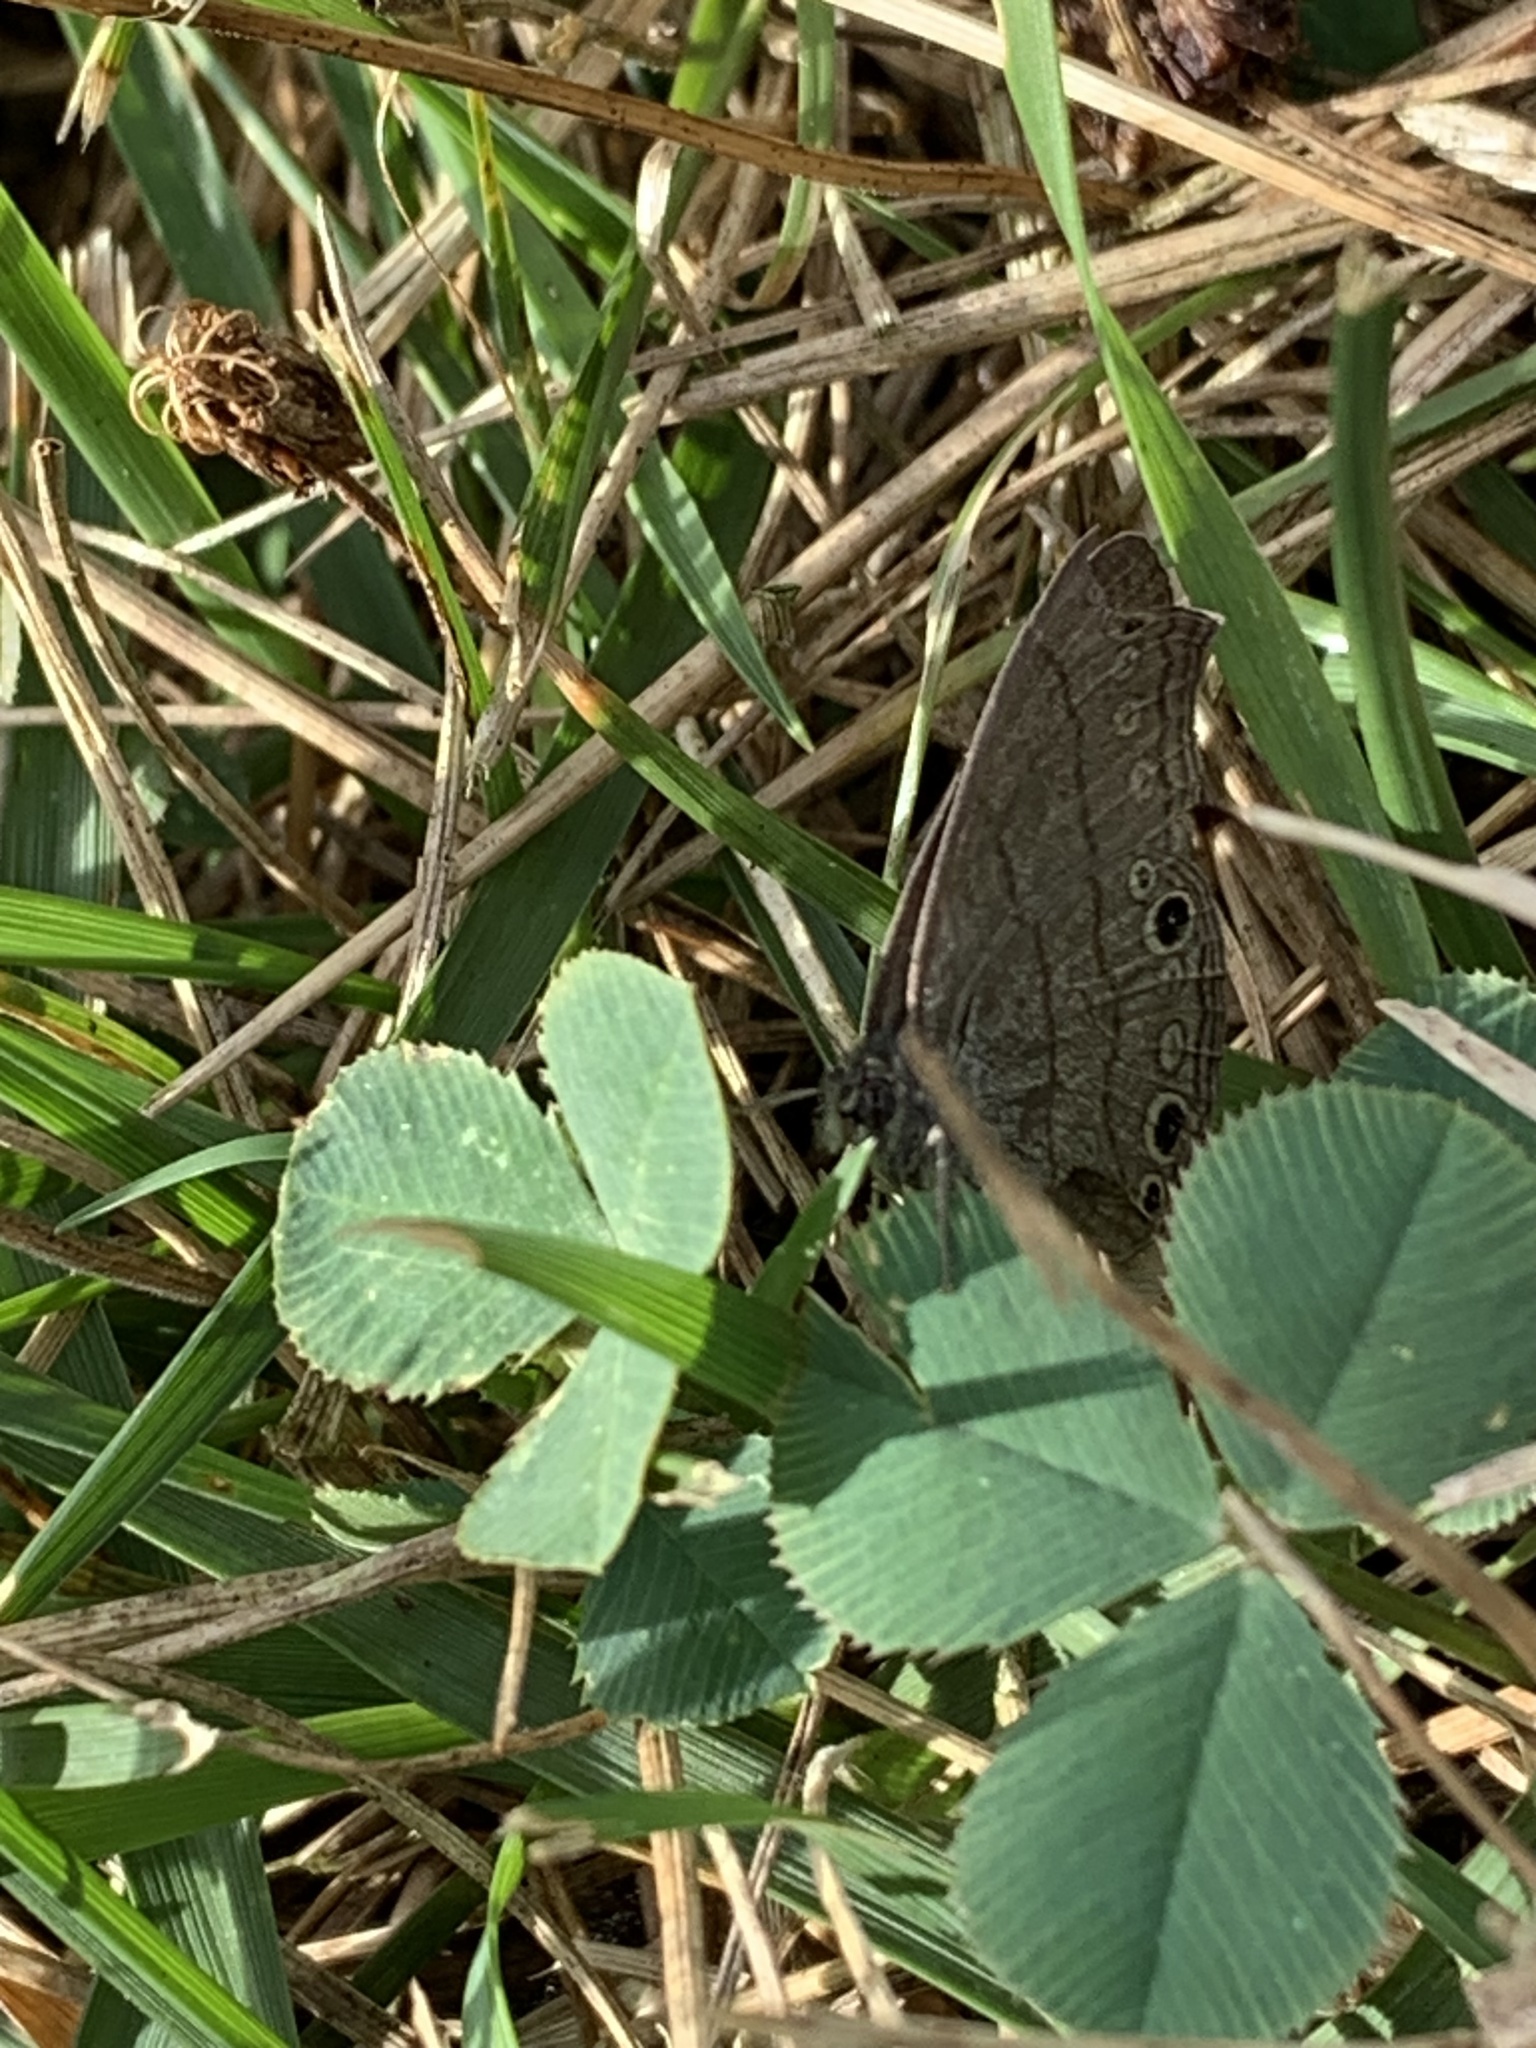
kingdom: Animalia
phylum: Arthropoda
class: Insecta
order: Lepidoptera
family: Nymphalidae
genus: Hermeuptychia
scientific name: Hermeuptychia hermes
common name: Hermes satyr
